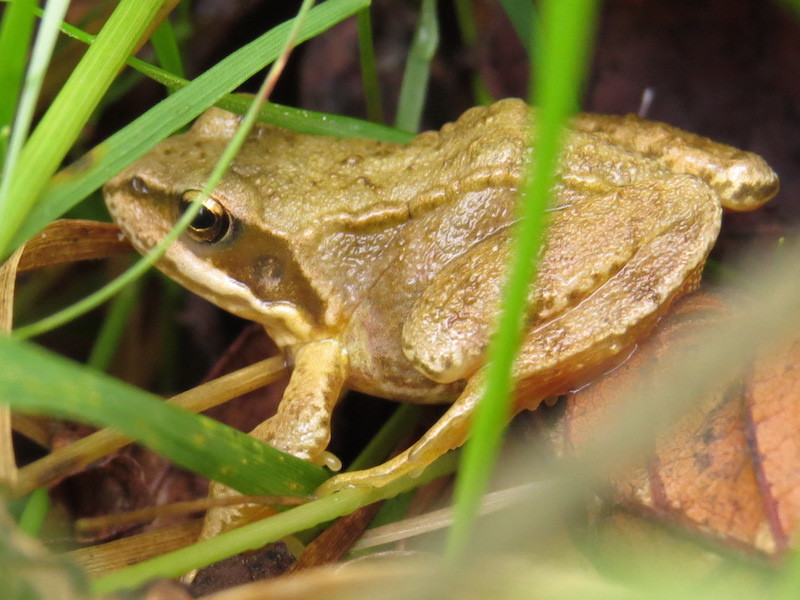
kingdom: Animalia
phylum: Chordata
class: Amphibia
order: Anura
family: Ranidae
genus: Rana
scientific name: Rana temporaria
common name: Common frog
